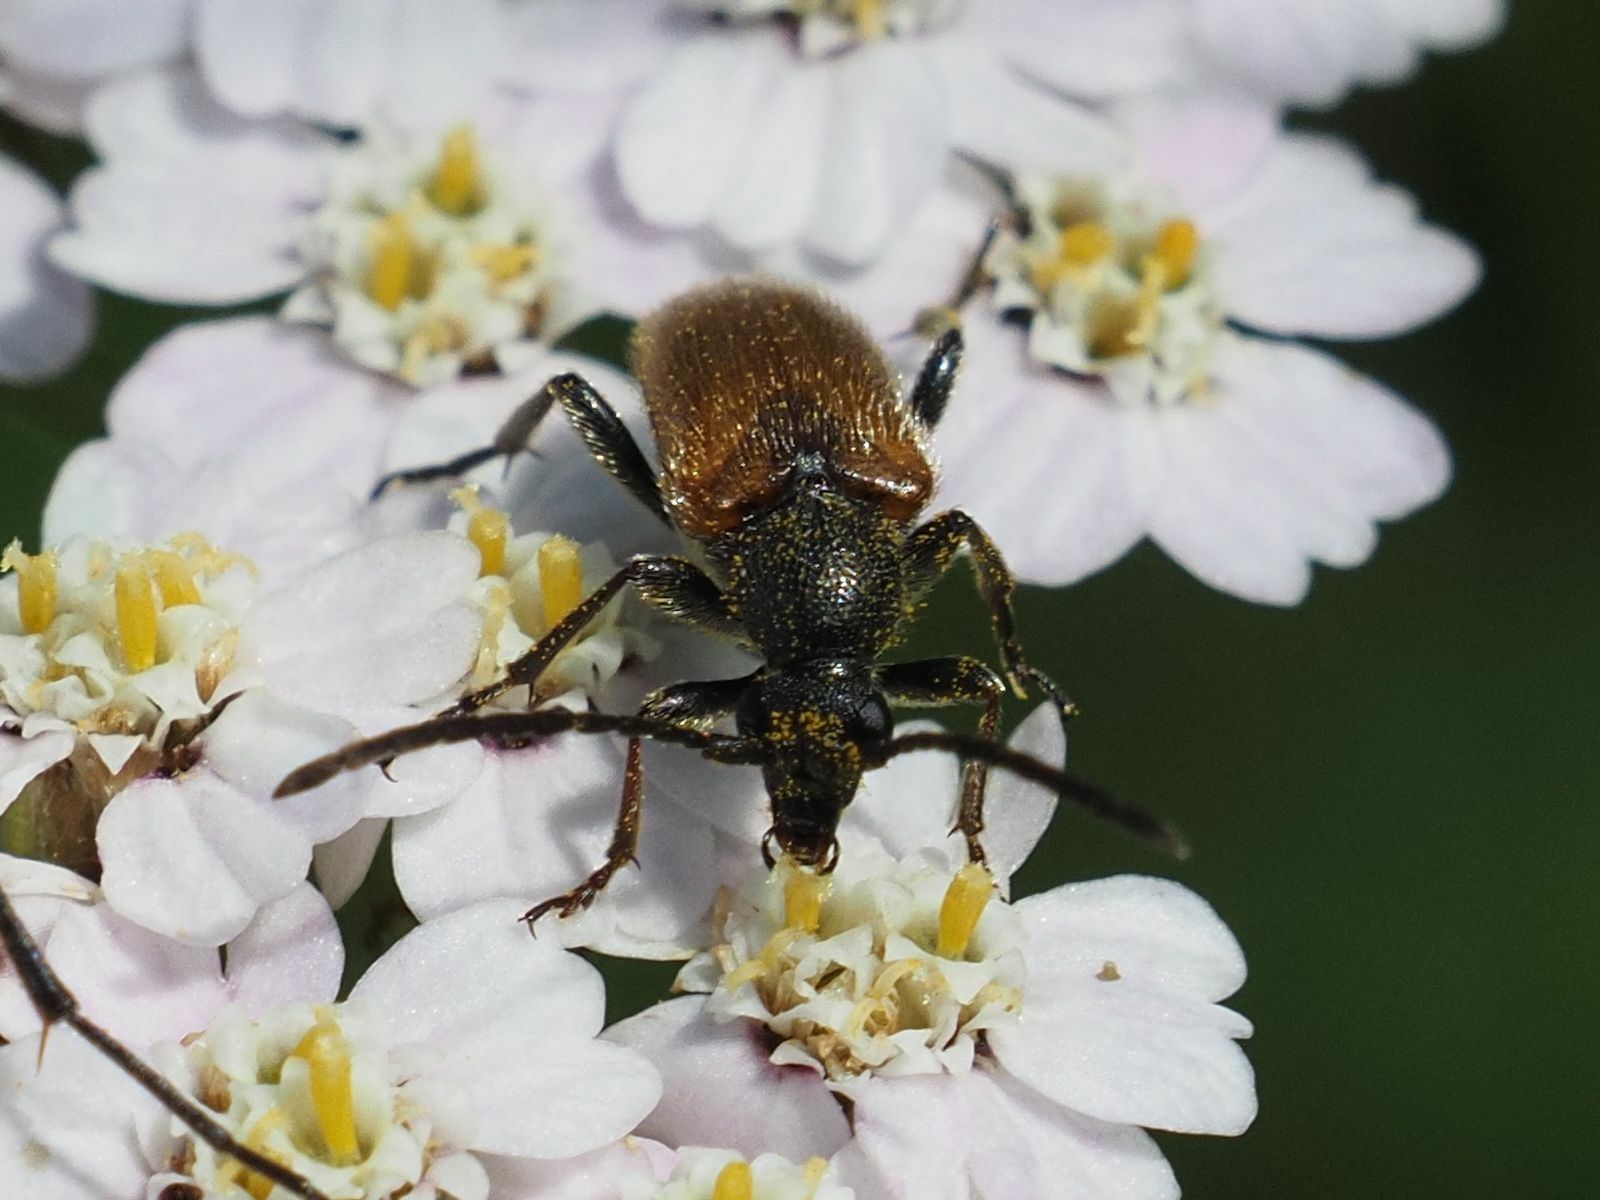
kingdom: Animalia
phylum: Arthropoda
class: Insecta
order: Coleoptera
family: Cerambycidae
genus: Pseudovadonia
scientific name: Pseudovadonia livida
